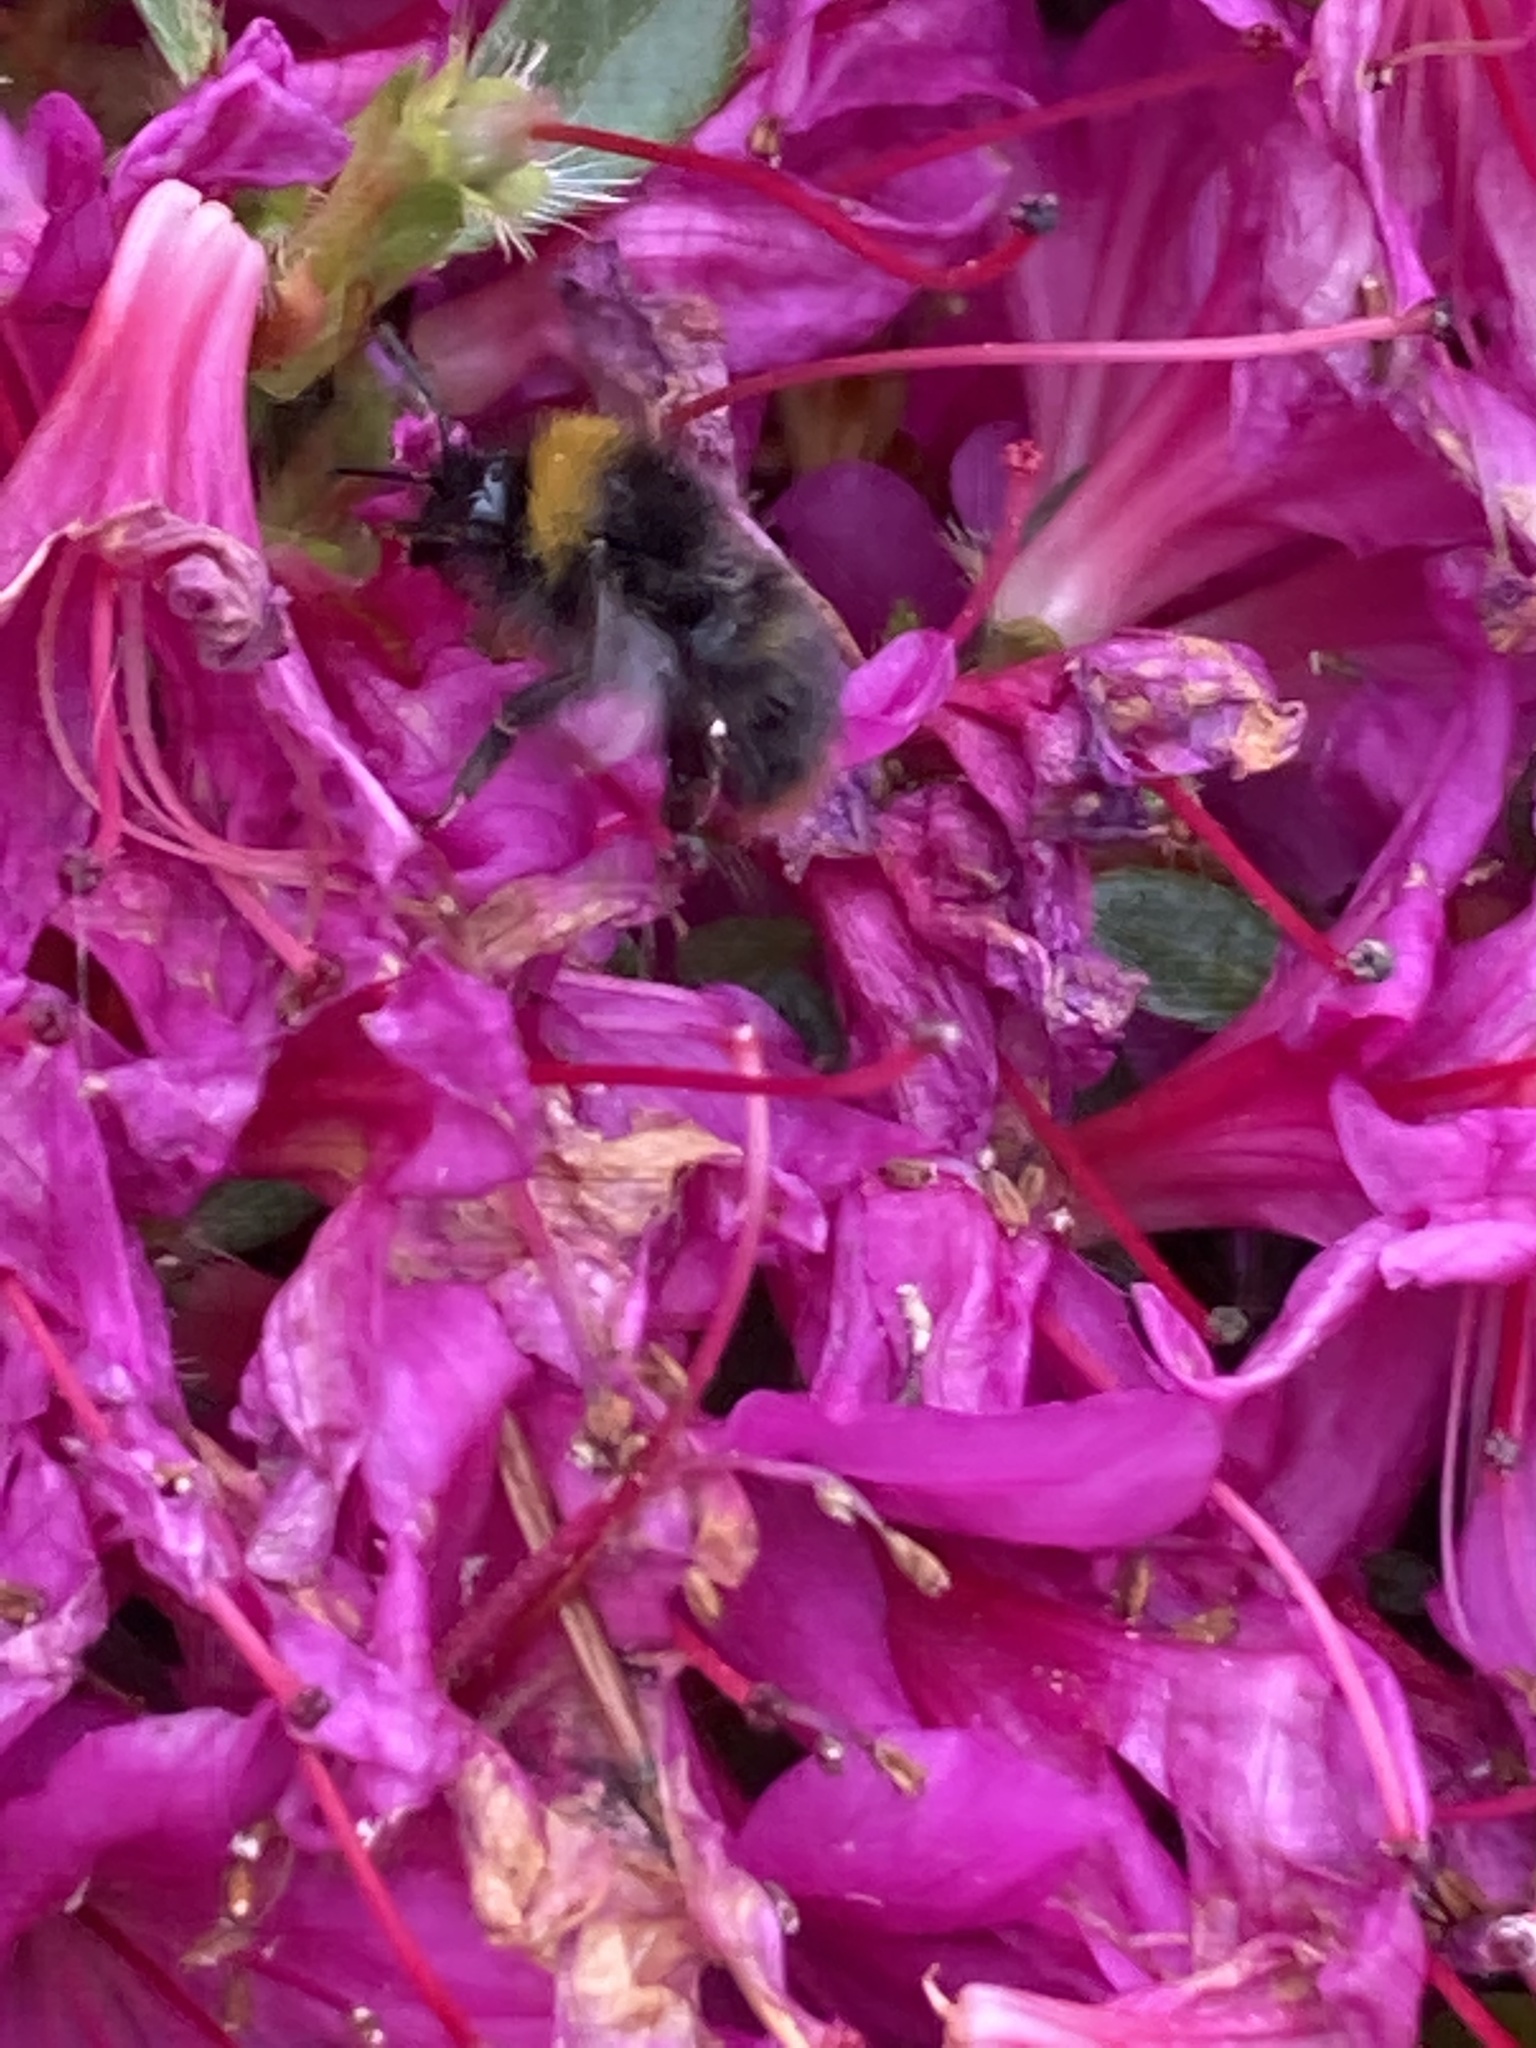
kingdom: Animalia
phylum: Arthropoda
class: Insecta
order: Hymenoptera
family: Apidae
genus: Bombus
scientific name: Bombus pratorum
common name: Early humble-bee
